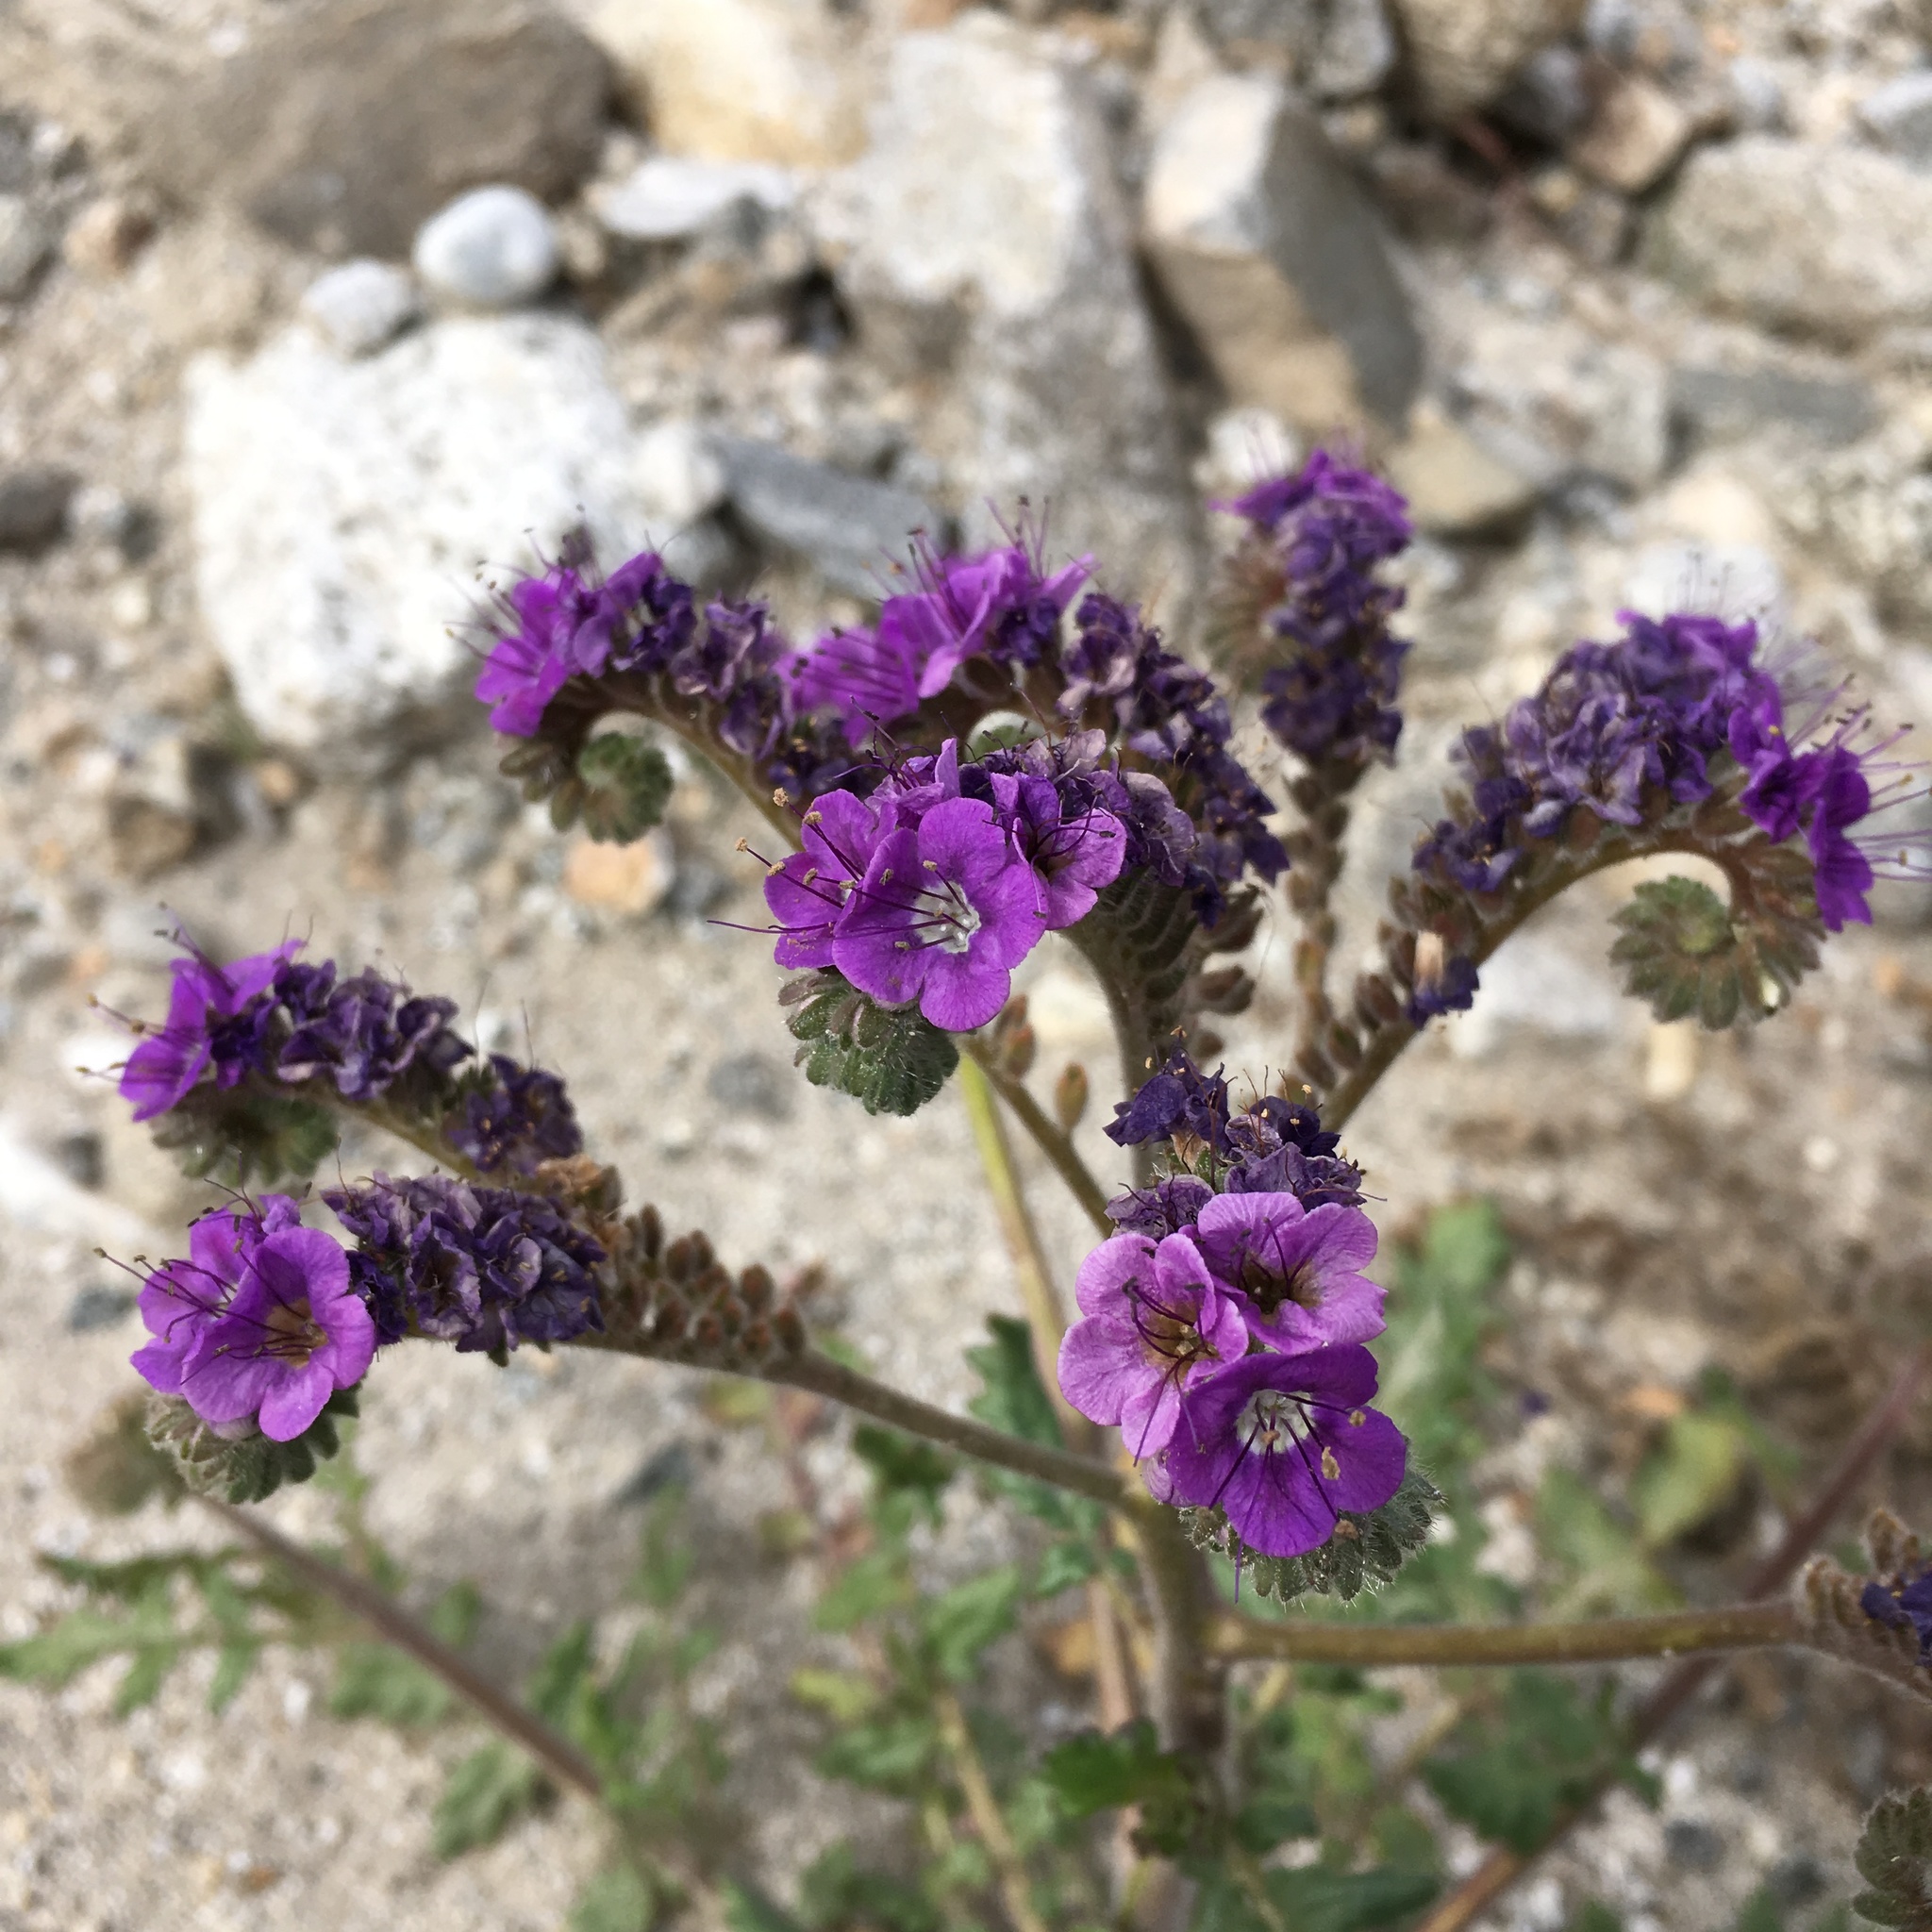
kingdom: Plantae
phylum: Tracheophyta
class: Magnoliopsida
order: Boraginales
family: Hydrophyllaceae
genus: Phacelia
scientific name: Phacelia crenulata
